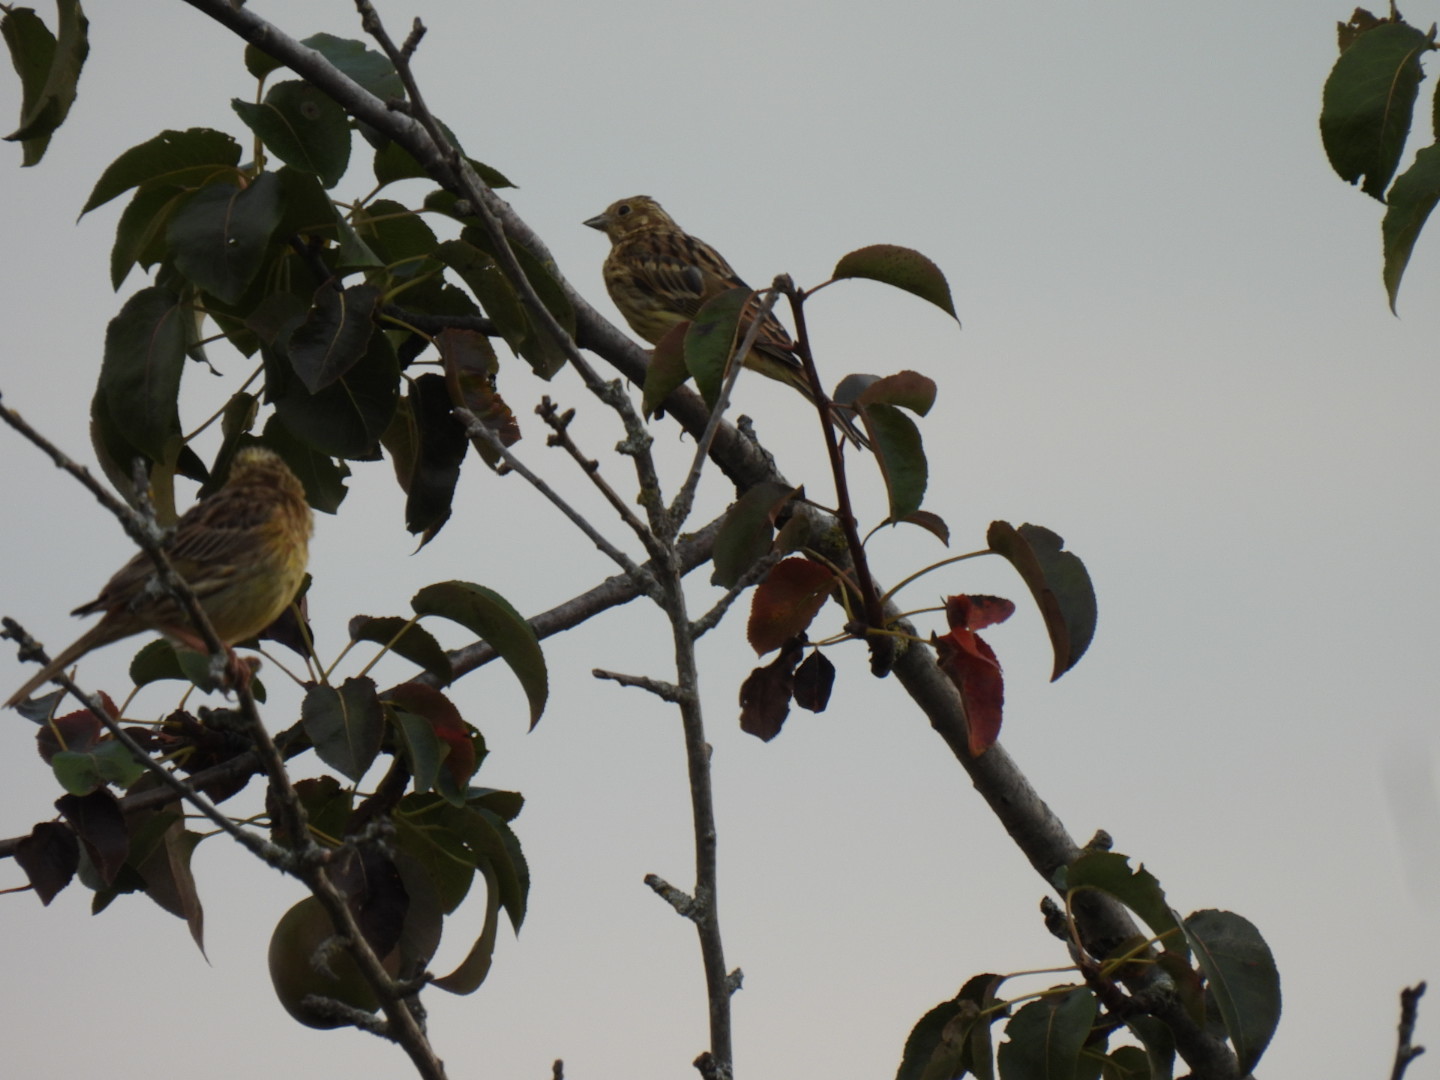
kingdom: Animalia
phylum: Chordata
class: Aves
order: Passeriformes
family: Emberizidae
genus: Emberiza
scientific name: Emberiza citrinella
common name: Yellowhammer
